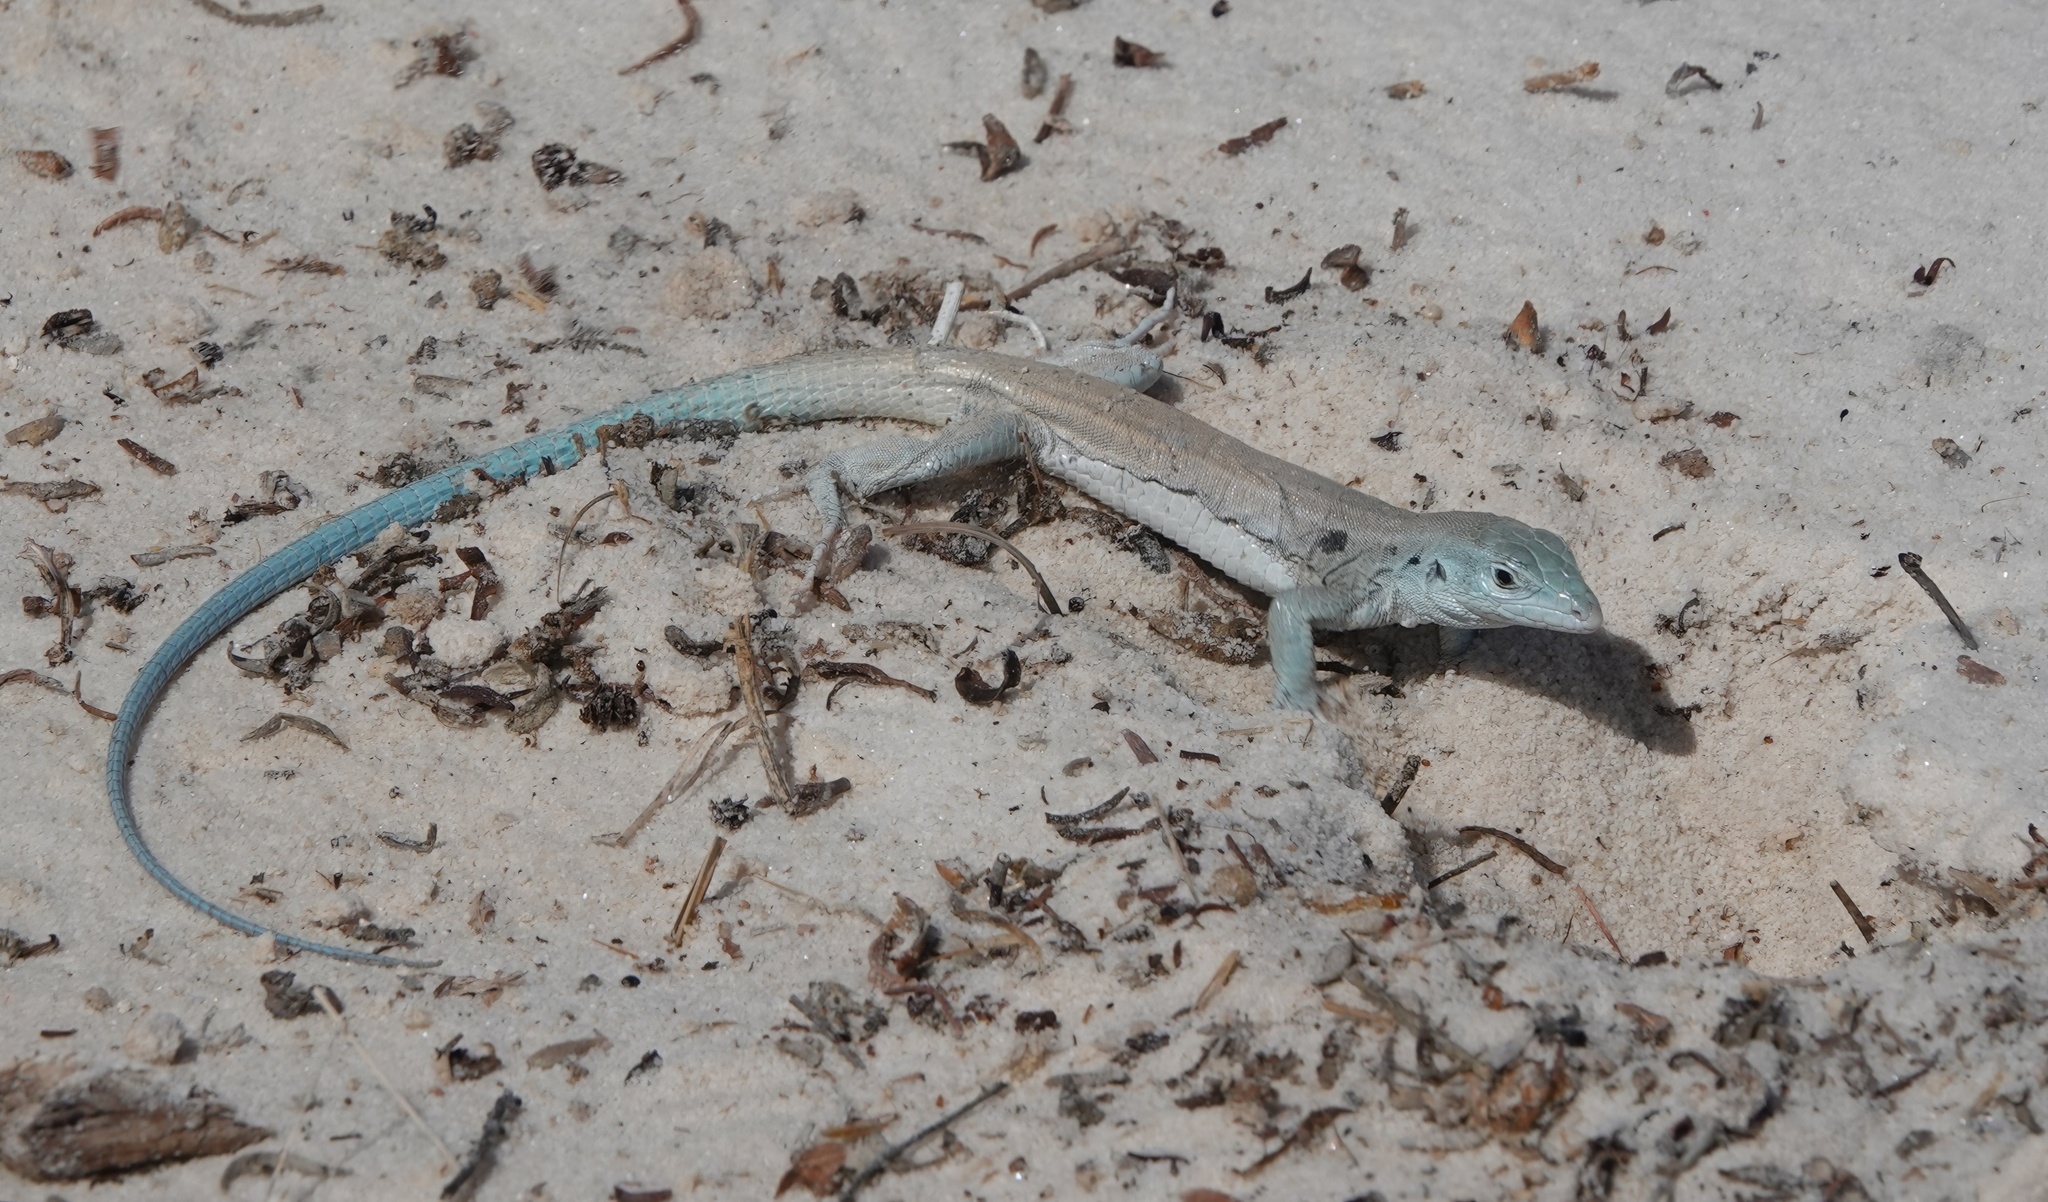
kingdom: Animalia
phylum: Chordata
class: Squamata
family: Teiidae
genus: Aspidoscelis
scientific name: Aspidoscelis inornatus
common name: Little striped whiptail
